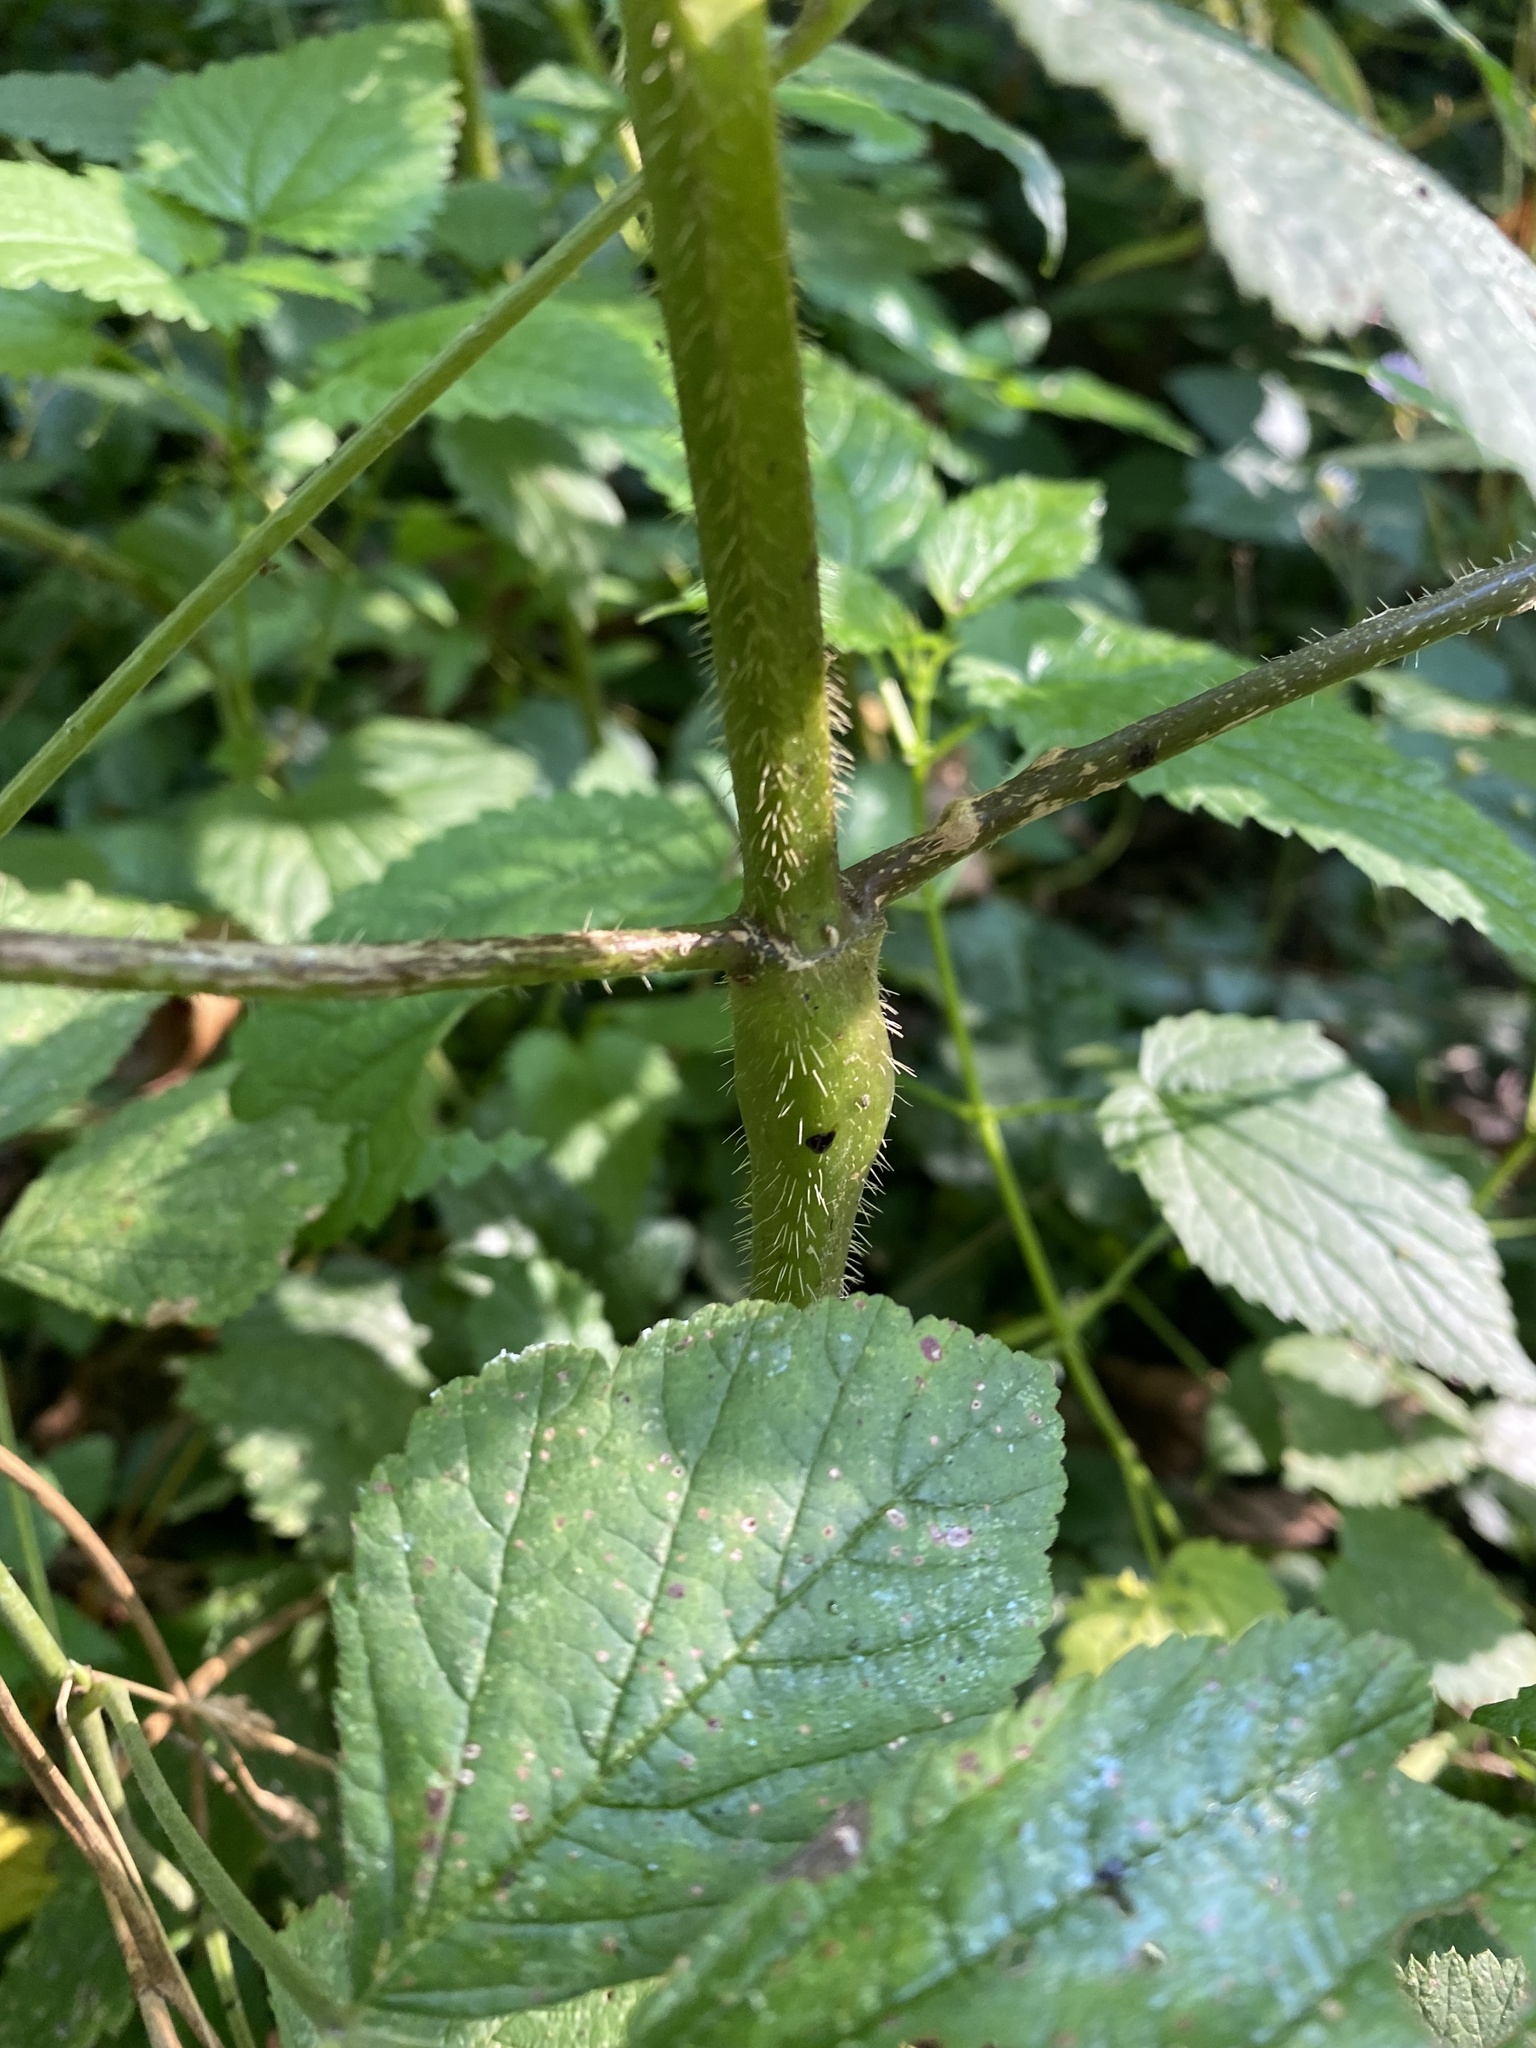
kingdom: Plantae
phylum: Tracheophyta
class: Magnoliopsida
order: Rosales
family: Rosaceae
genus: Rubus
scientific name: Rubus caesius
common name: Dewberry
